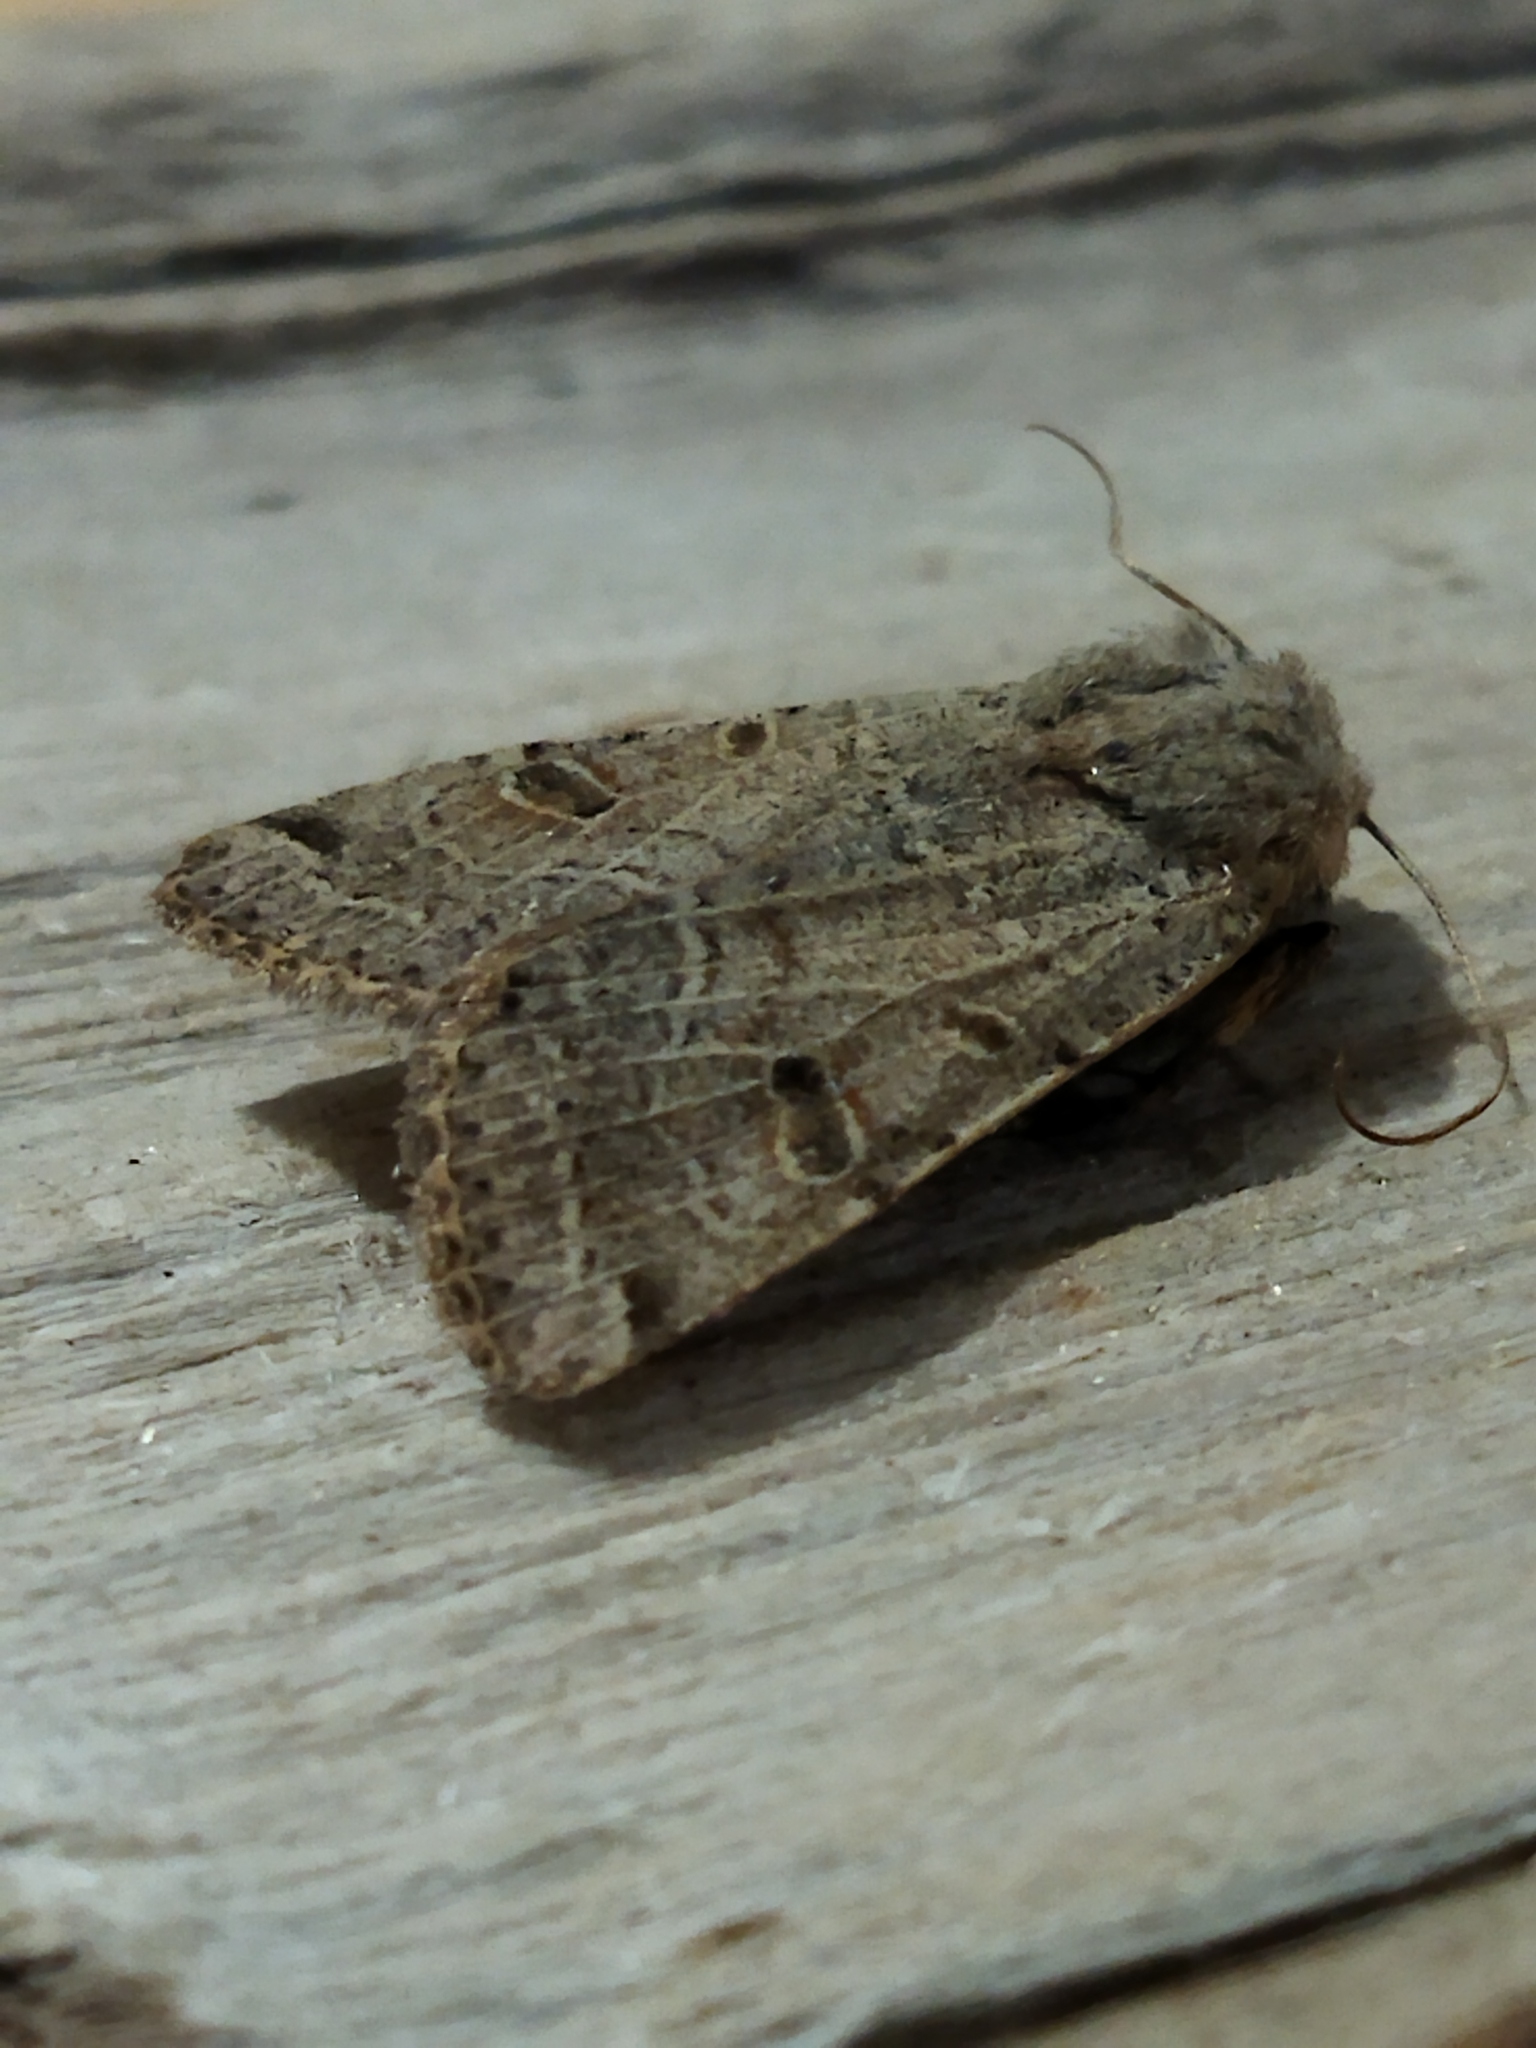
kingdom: Animalia
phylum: Arthropoda
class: Insecta
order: Lepidoptera
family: Noctuidae
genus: Agrochola
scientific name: Agrochola lychnidis
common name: Beaded chestnut
